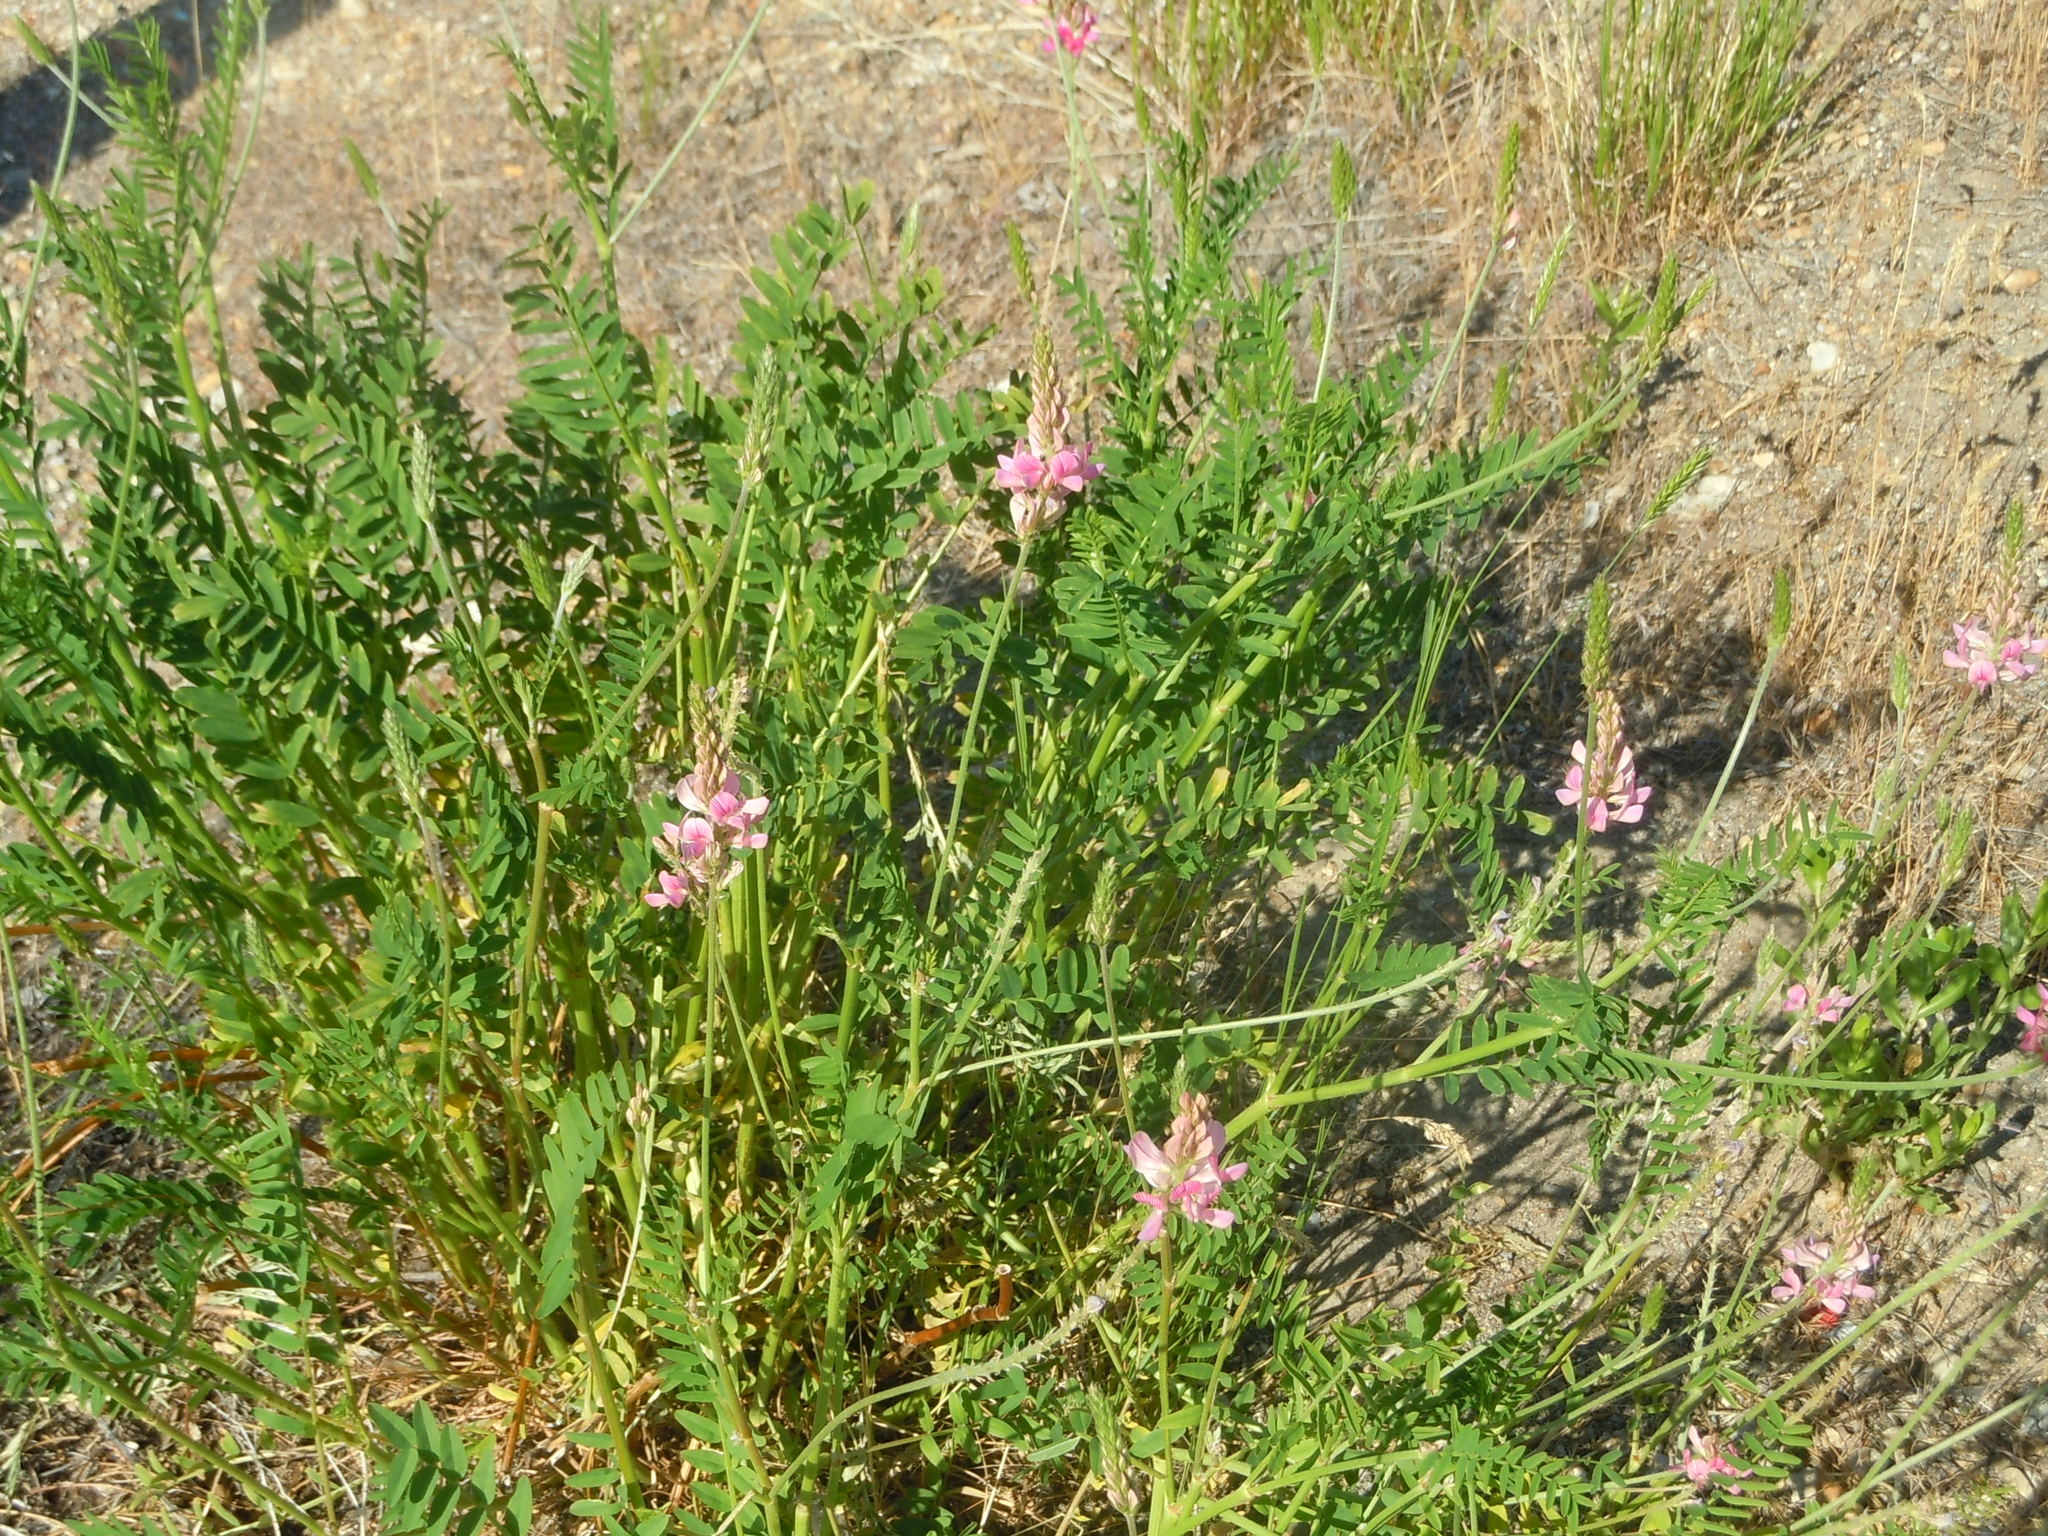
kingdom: Plantae
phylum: Tracheophyta
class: Magnoliopsida
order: Fabales
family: Fabaceae
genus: Onobrychis
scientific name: Onobrychis viciifolia
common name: Sainfoin
